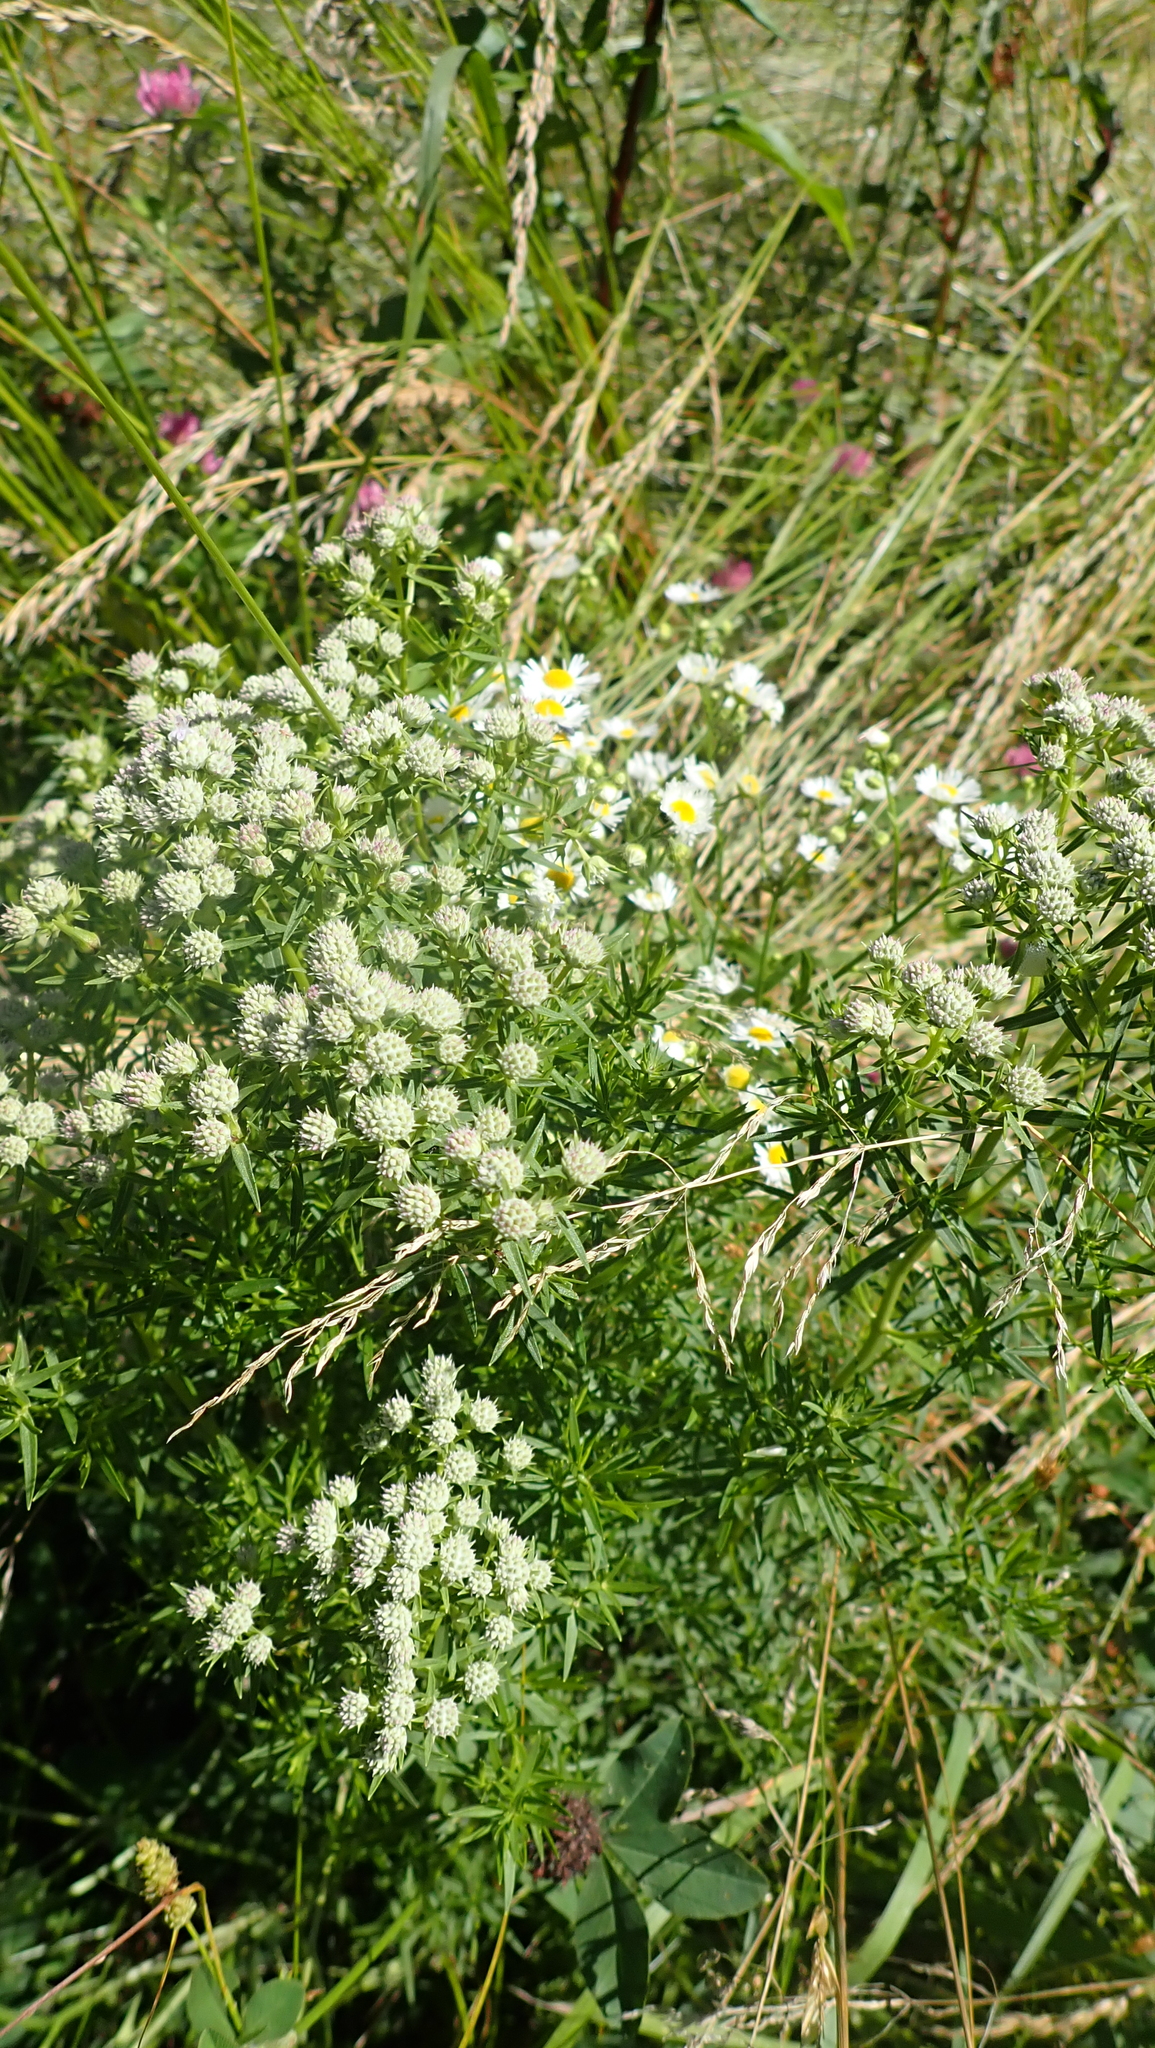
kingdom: Plantae
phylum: Tracheophyta
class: Magnoliopsida
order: Lamiales
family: Lamiaceae
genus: Pycnanthemum
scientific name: Pycnanthemum tenuifolium
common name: Narrow-leaf mountain-mint
